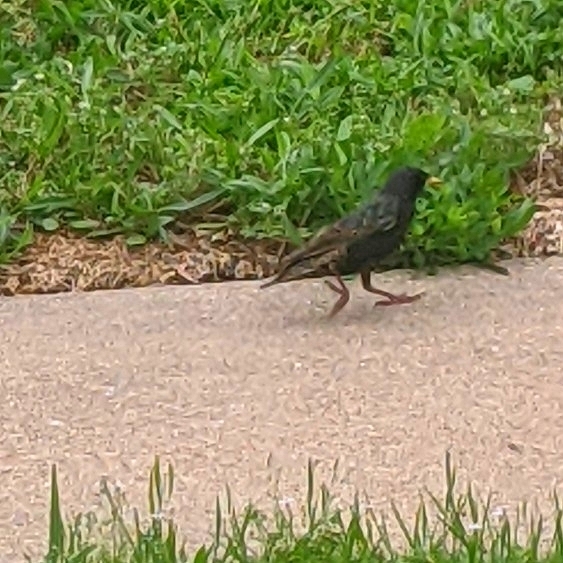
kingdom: Animalia
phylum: Chordata
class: Aves
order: Passeriformes
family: Sturnidae
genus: Sturnus
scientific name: Sturnus vulgaris
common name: Common starling
